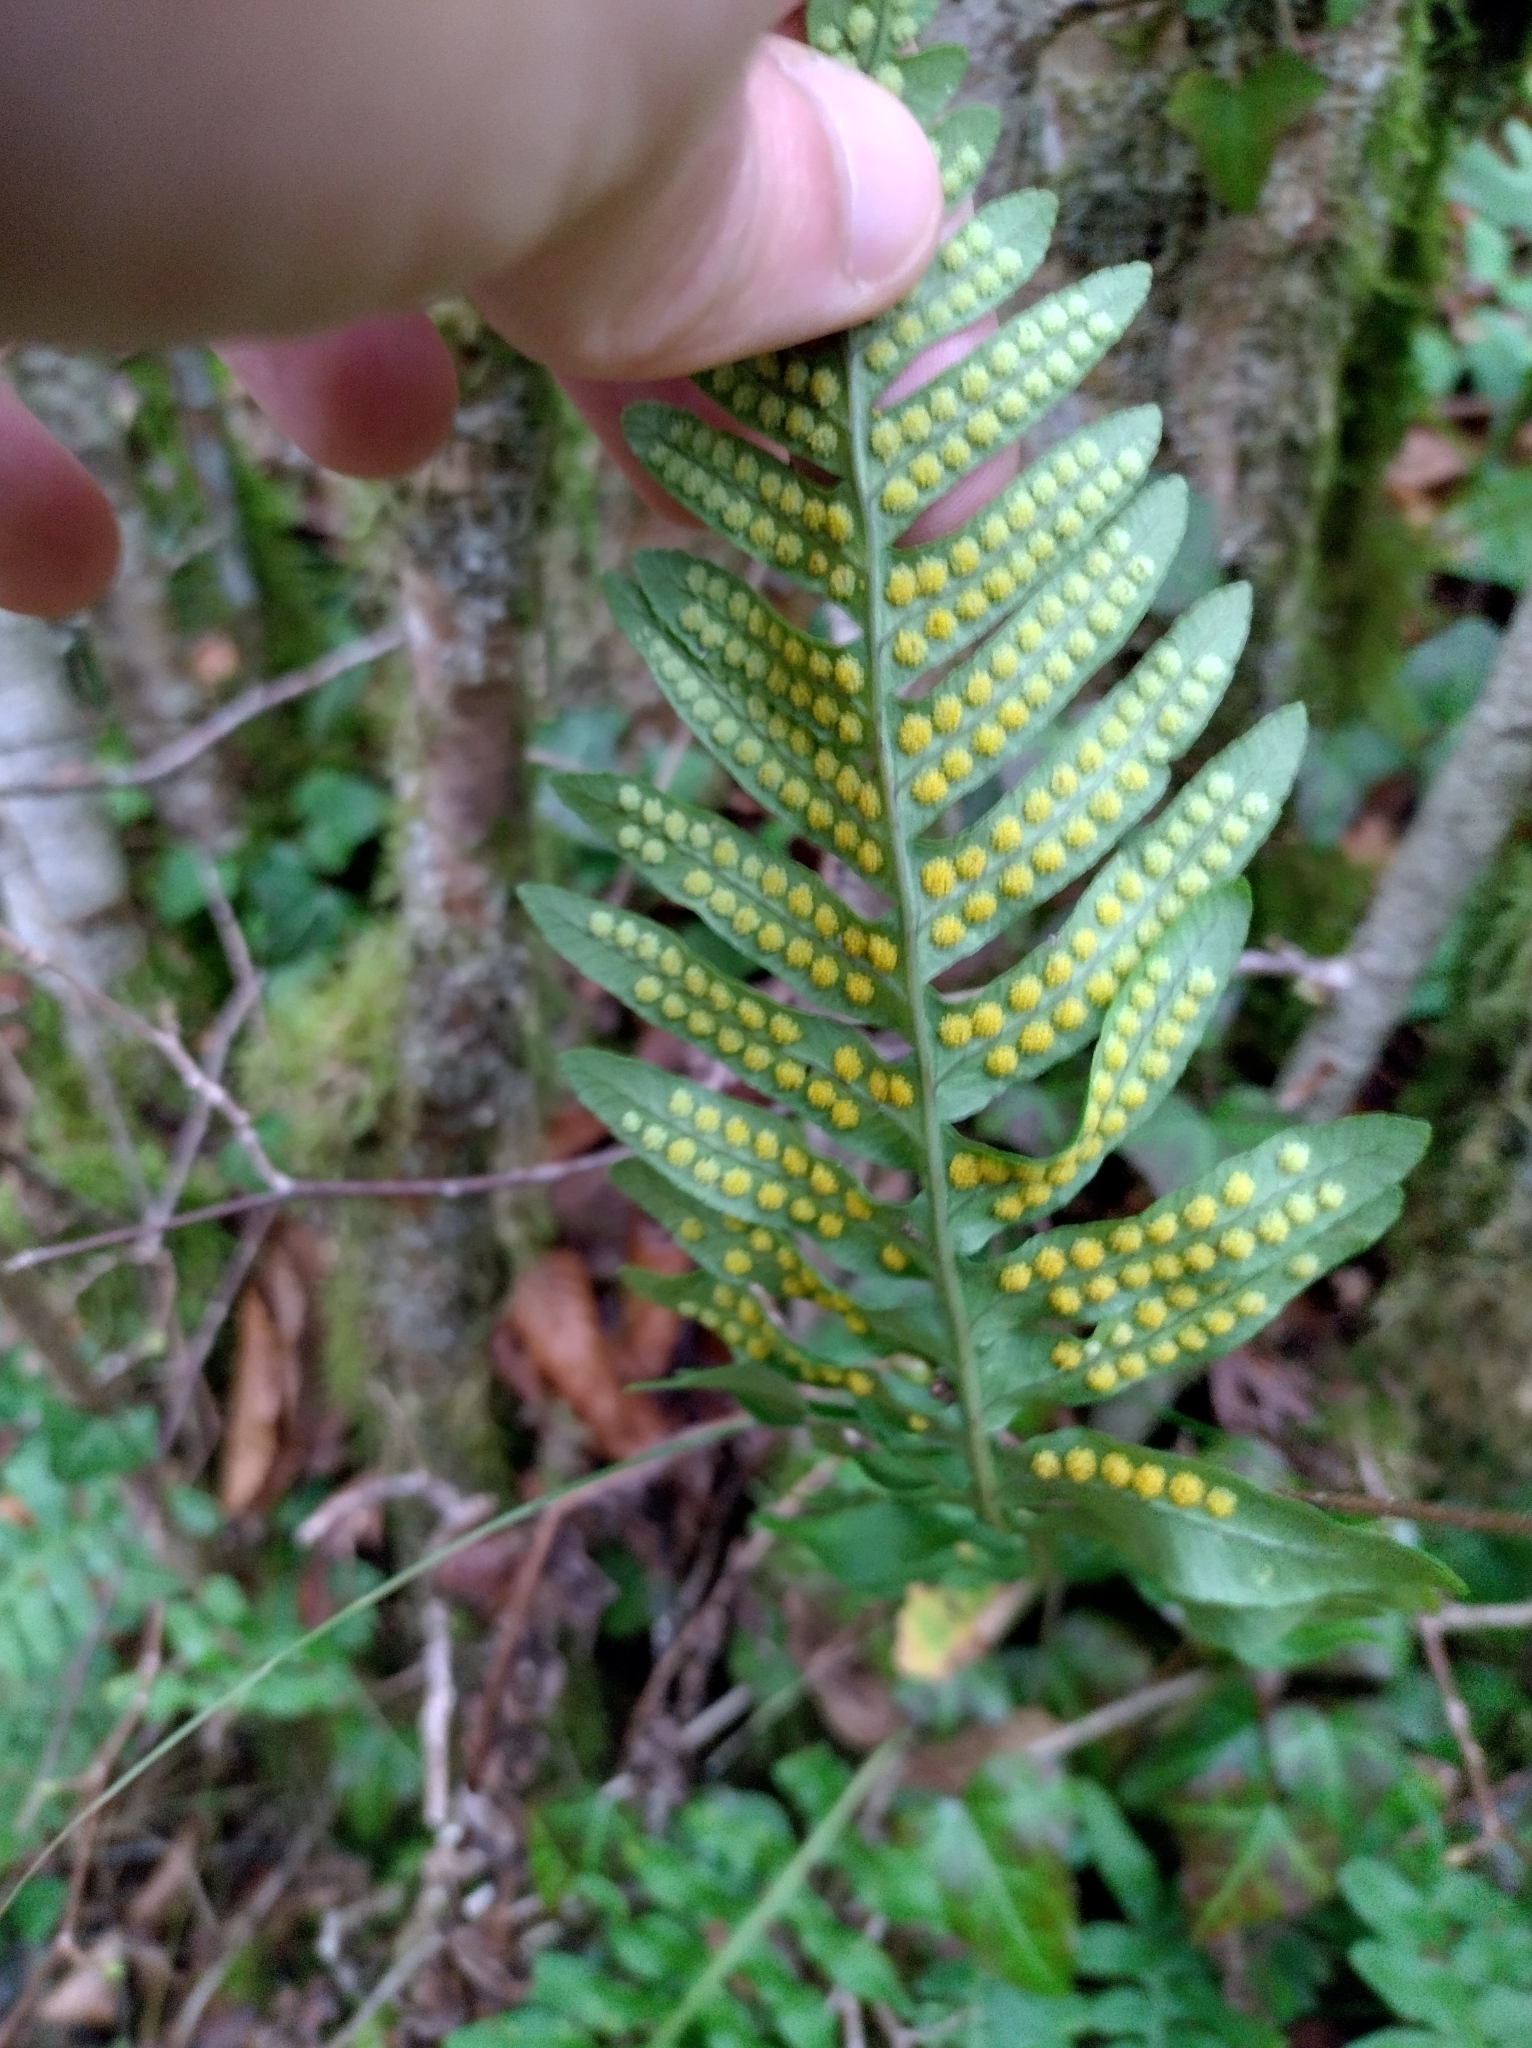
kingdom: Plantae
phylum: Tracheophyta
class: Polypodiopsida
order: Polypodiales
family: Polypodiaceae
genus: Polypodium
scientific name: Polypodium vulgare
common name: Common polypody
